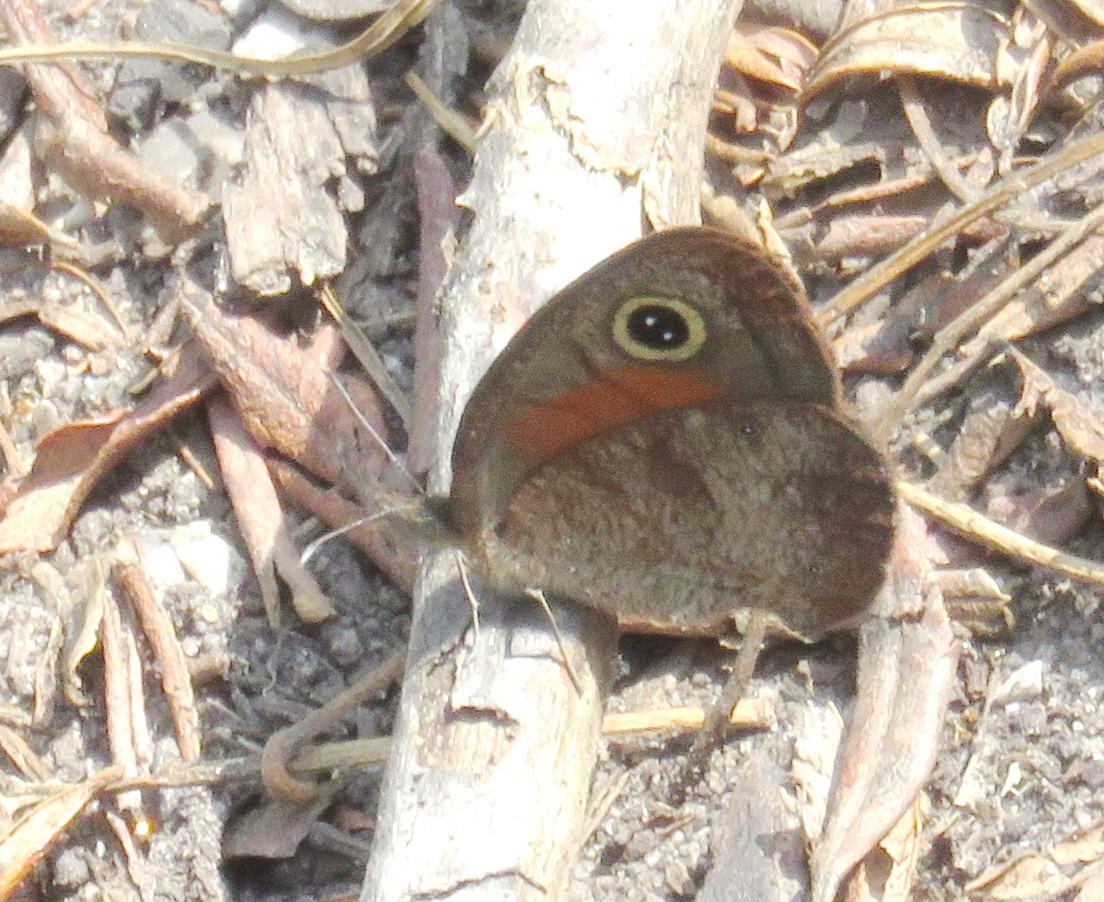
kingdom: Animalia
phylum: Arthropoda
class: Insecta
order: Lepidoptera
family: Nymphalidae
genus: Cassionympha
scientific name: Cassionympha cassius
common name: Rainforest brown
